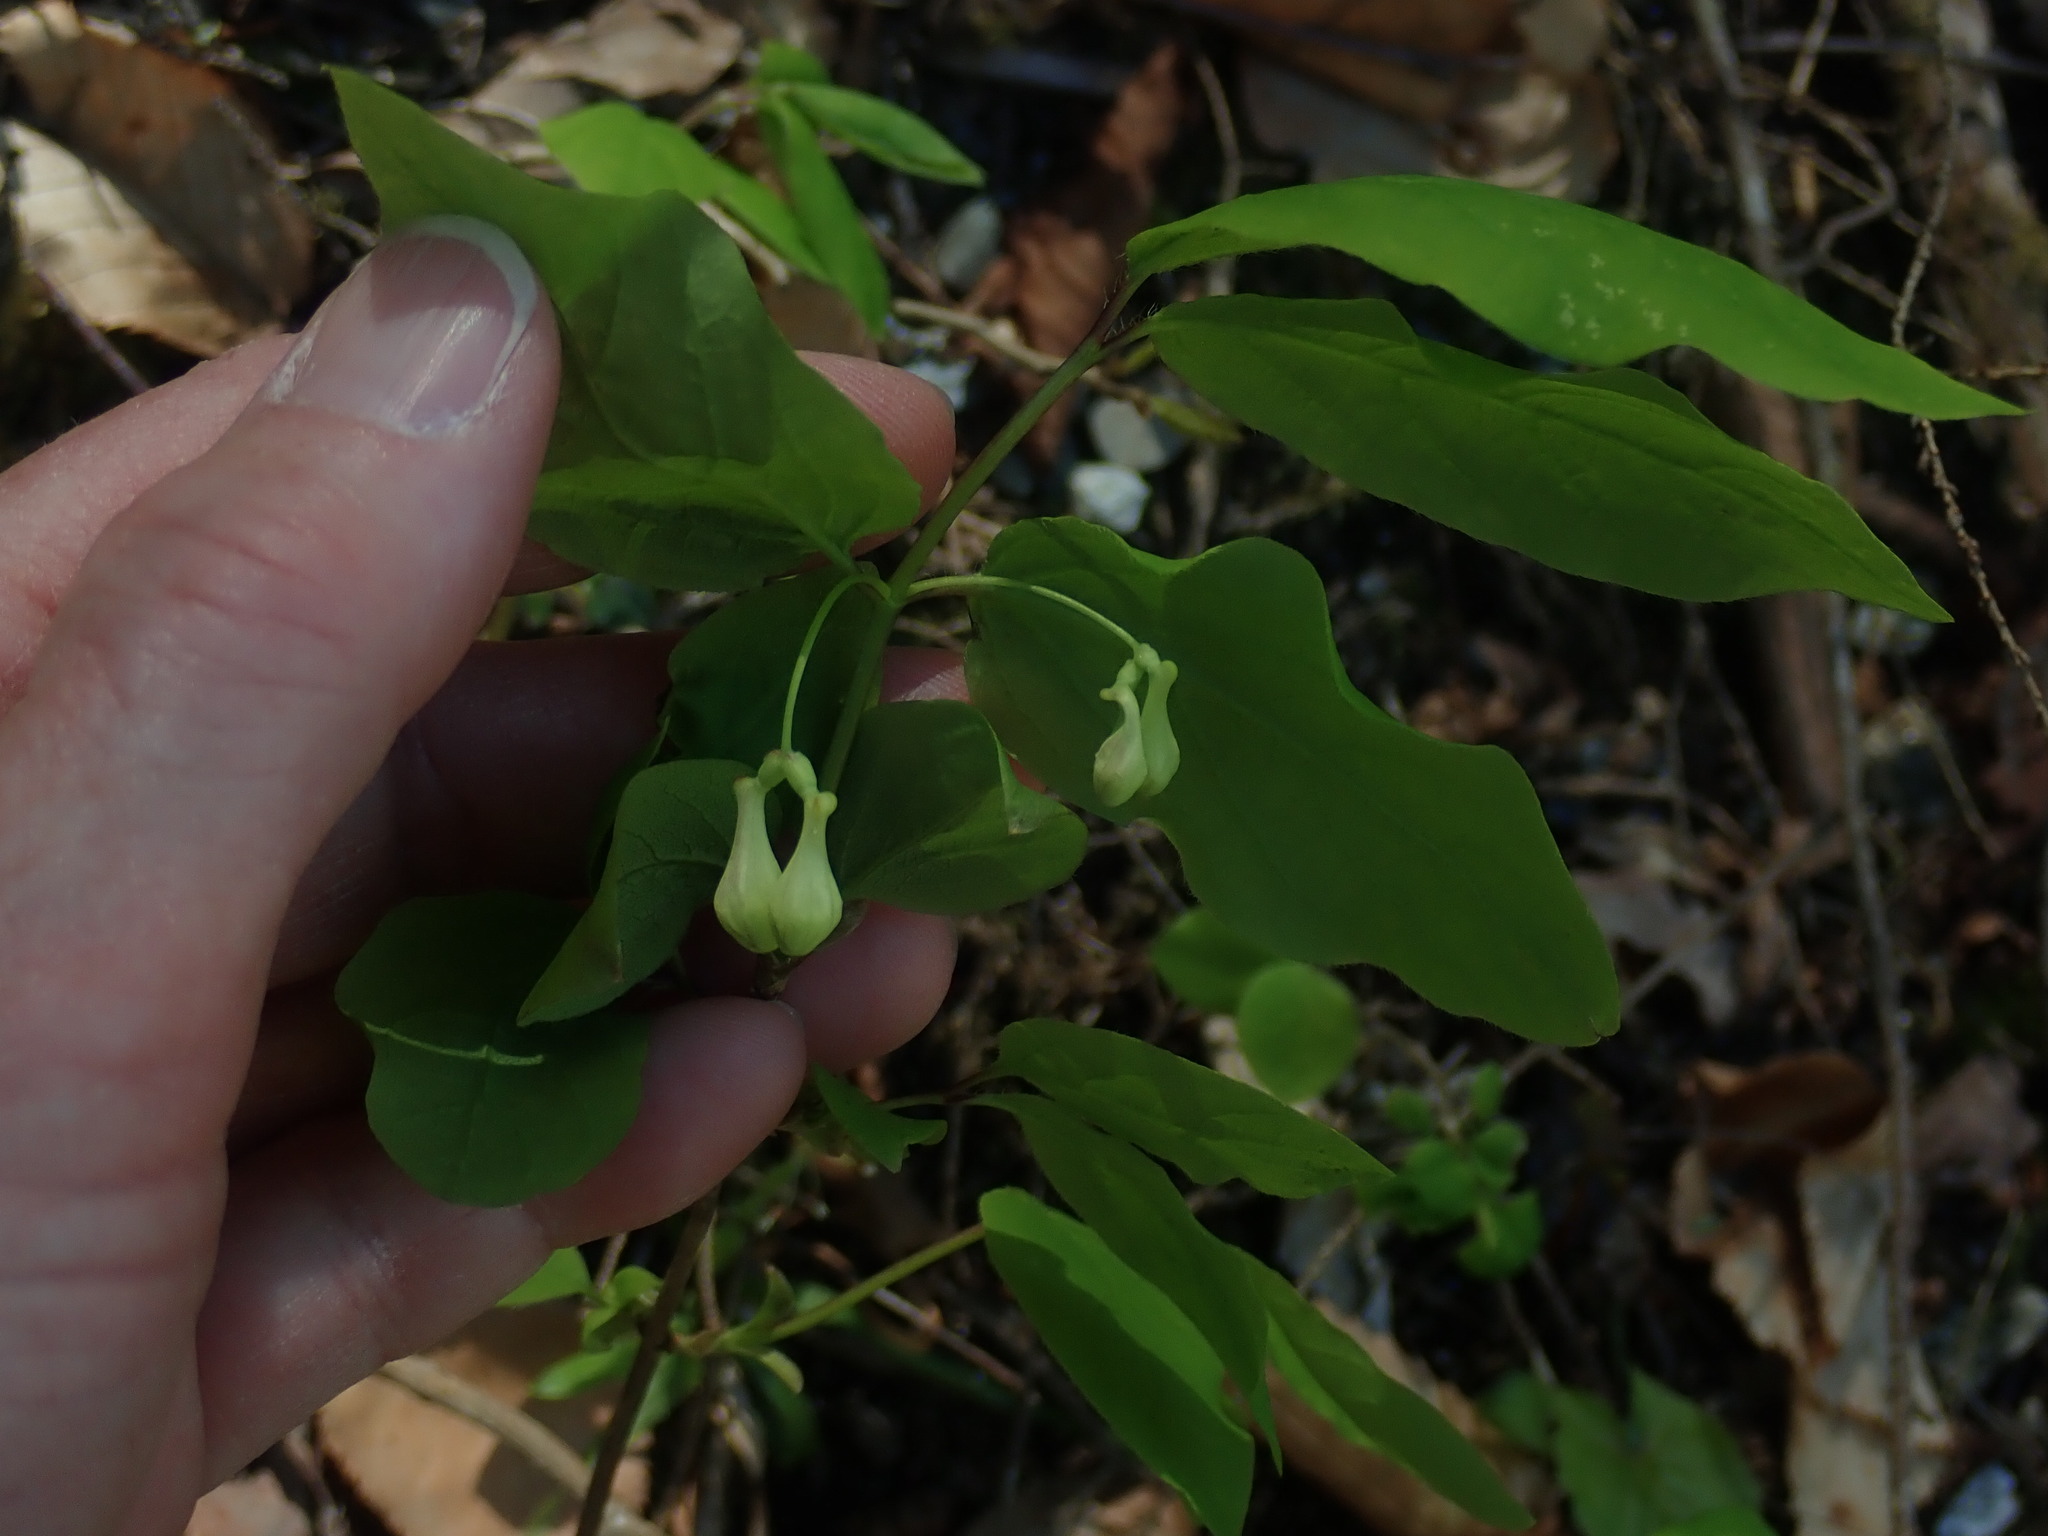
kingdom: Plantae
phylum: Tracheophyta
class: Magnoliopsida
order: Dipsacales
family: Caprifoliaceae
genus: Lonicera
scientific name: Lonicera canadensis
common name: American fly-honeysuckle
